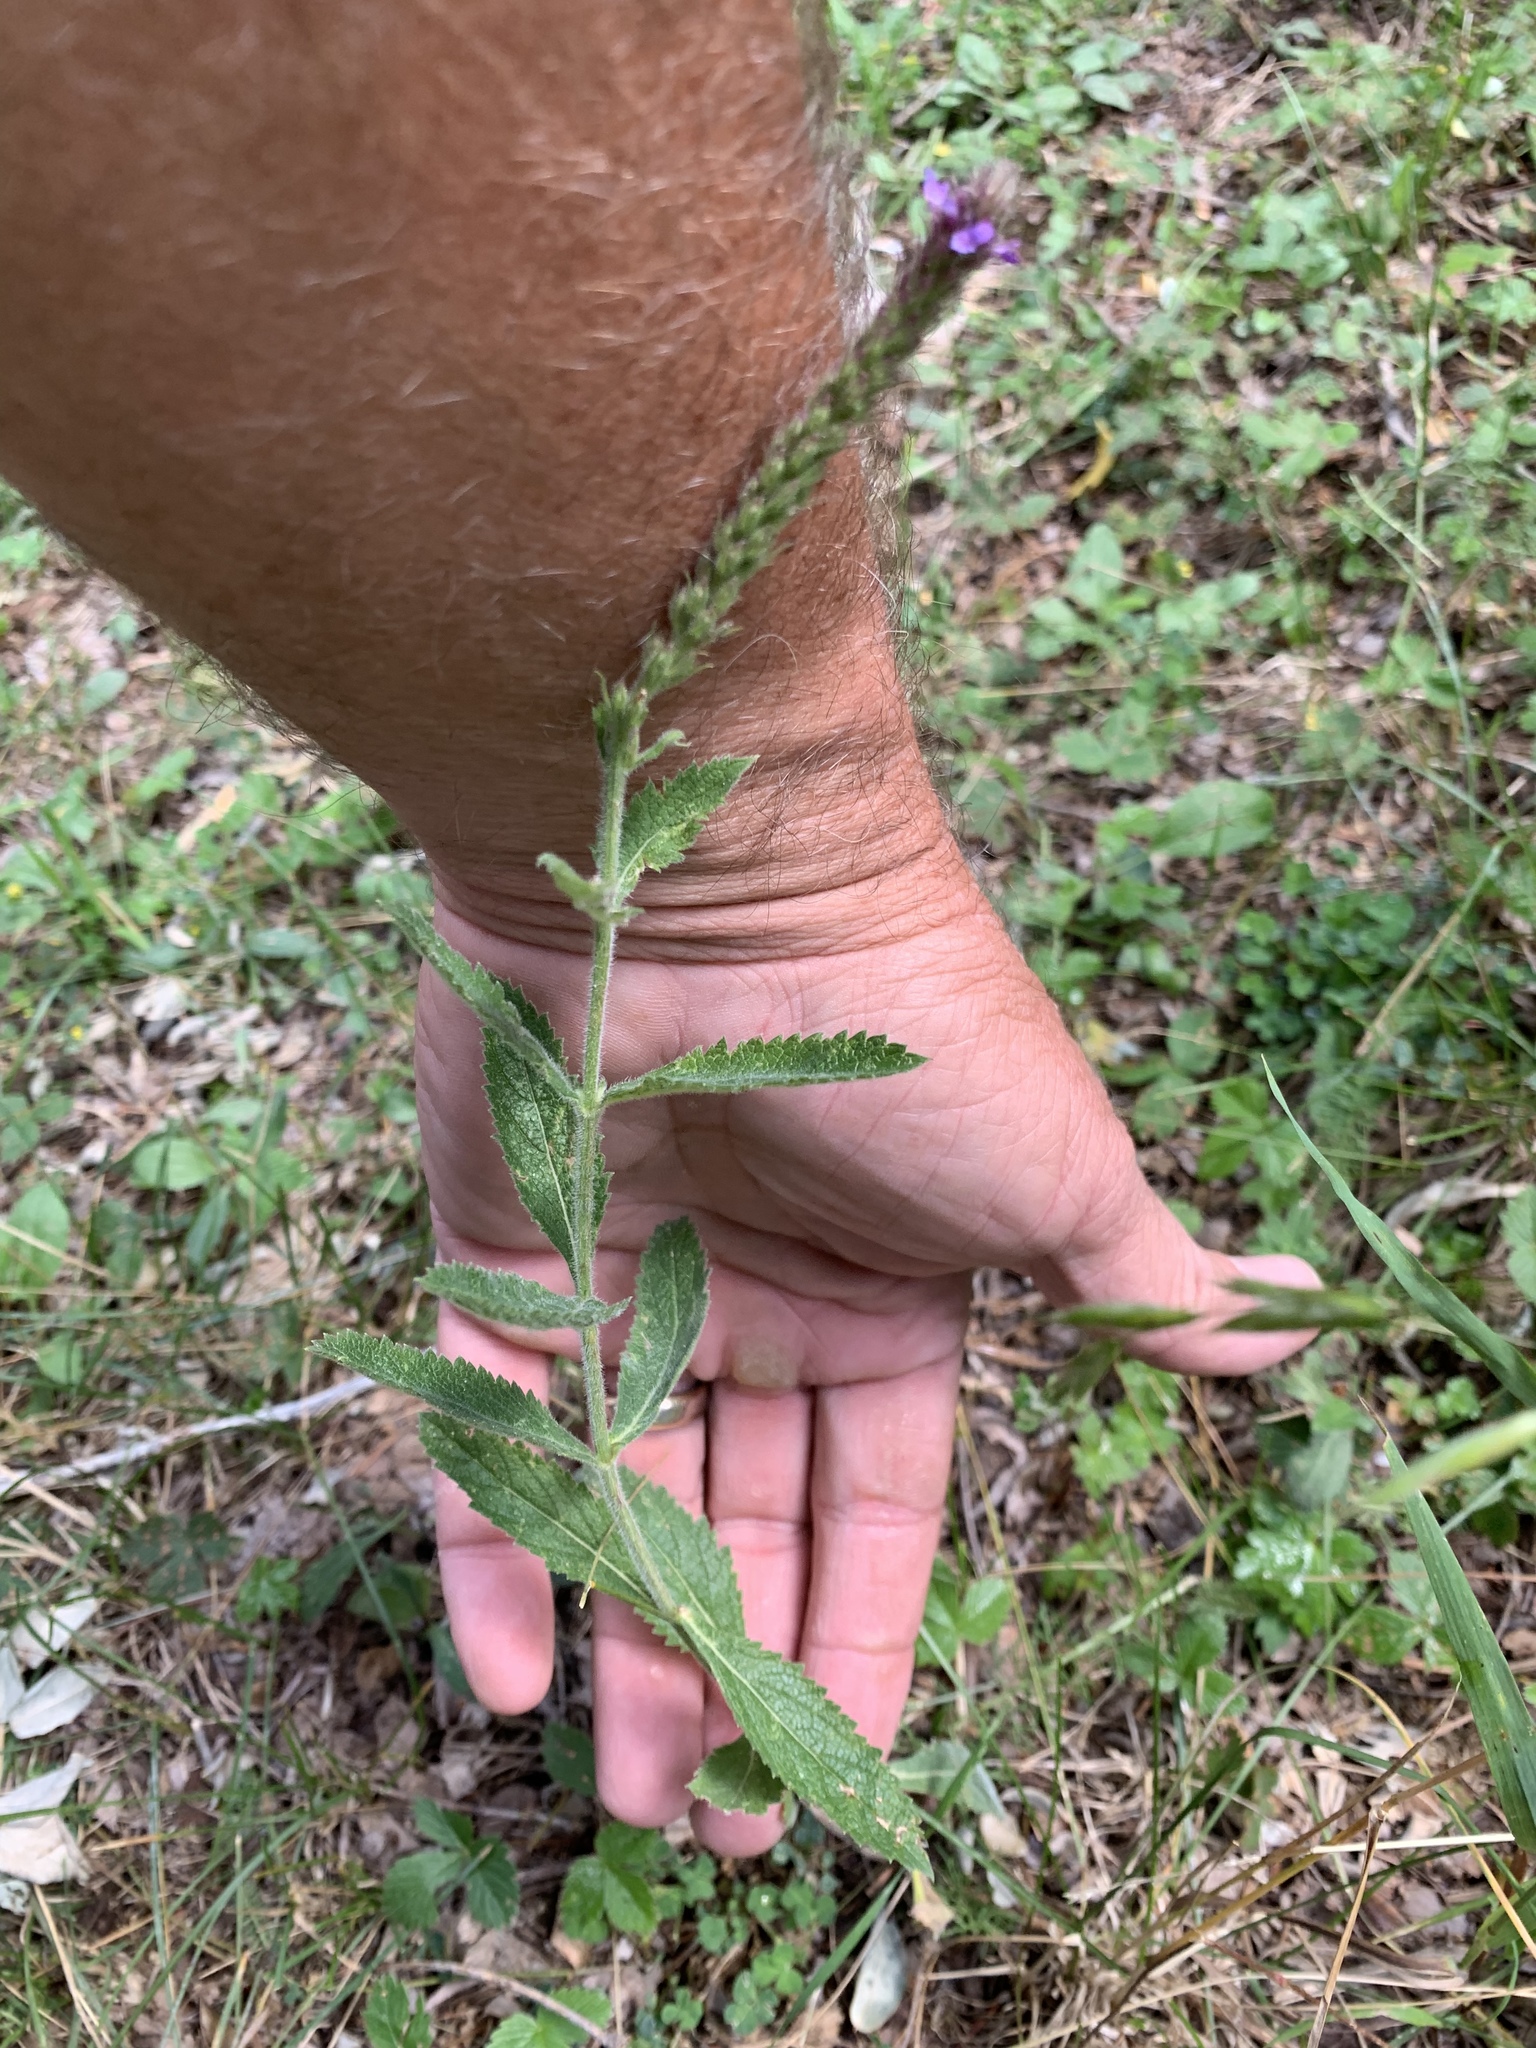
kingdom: Plantae
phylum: Tracheophyta
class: Magnoliopsida
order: Lamiales
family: Verbenaceae
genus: Verbena
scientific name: Verbena macdougalii
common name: New mexico vervain
